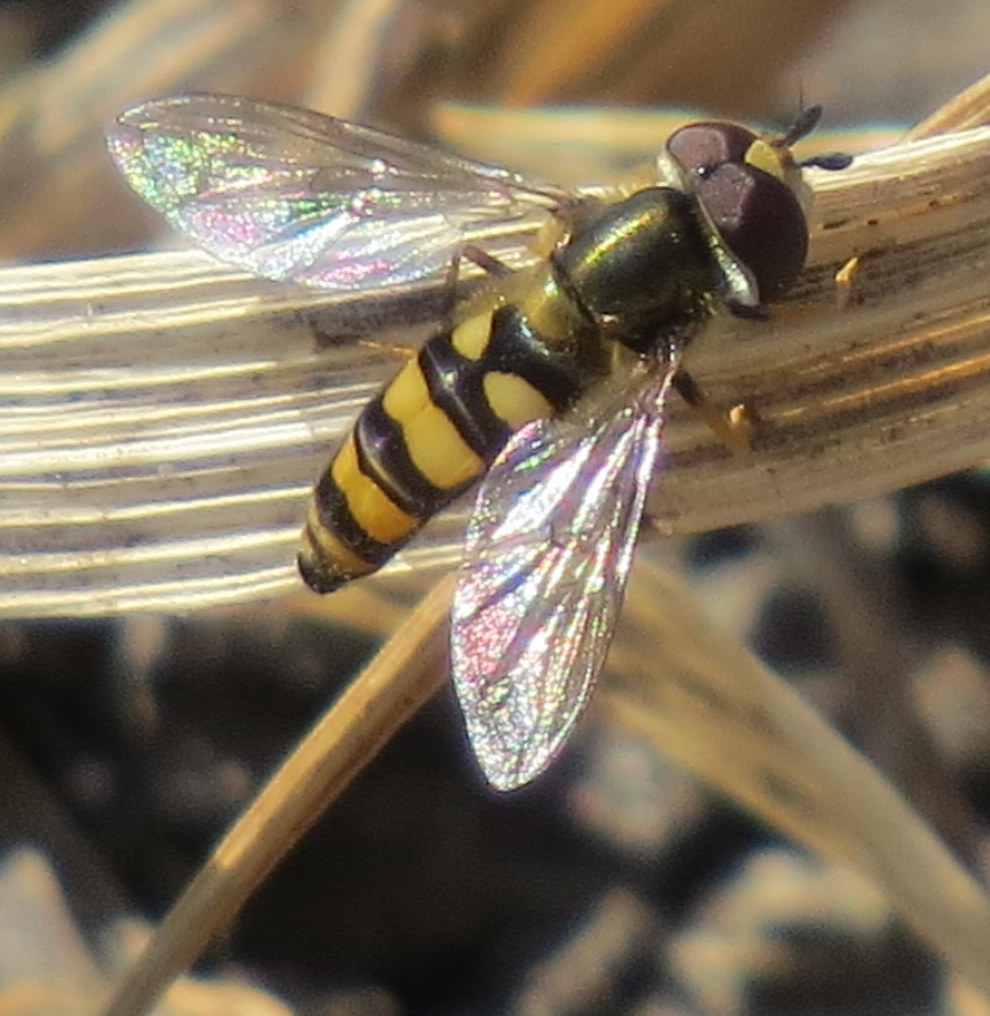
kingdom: Animalia
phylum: Arthropoda
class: Insecta
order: Diptera
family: Syrphidae
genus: Eupeodes
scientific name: Eupeodes
